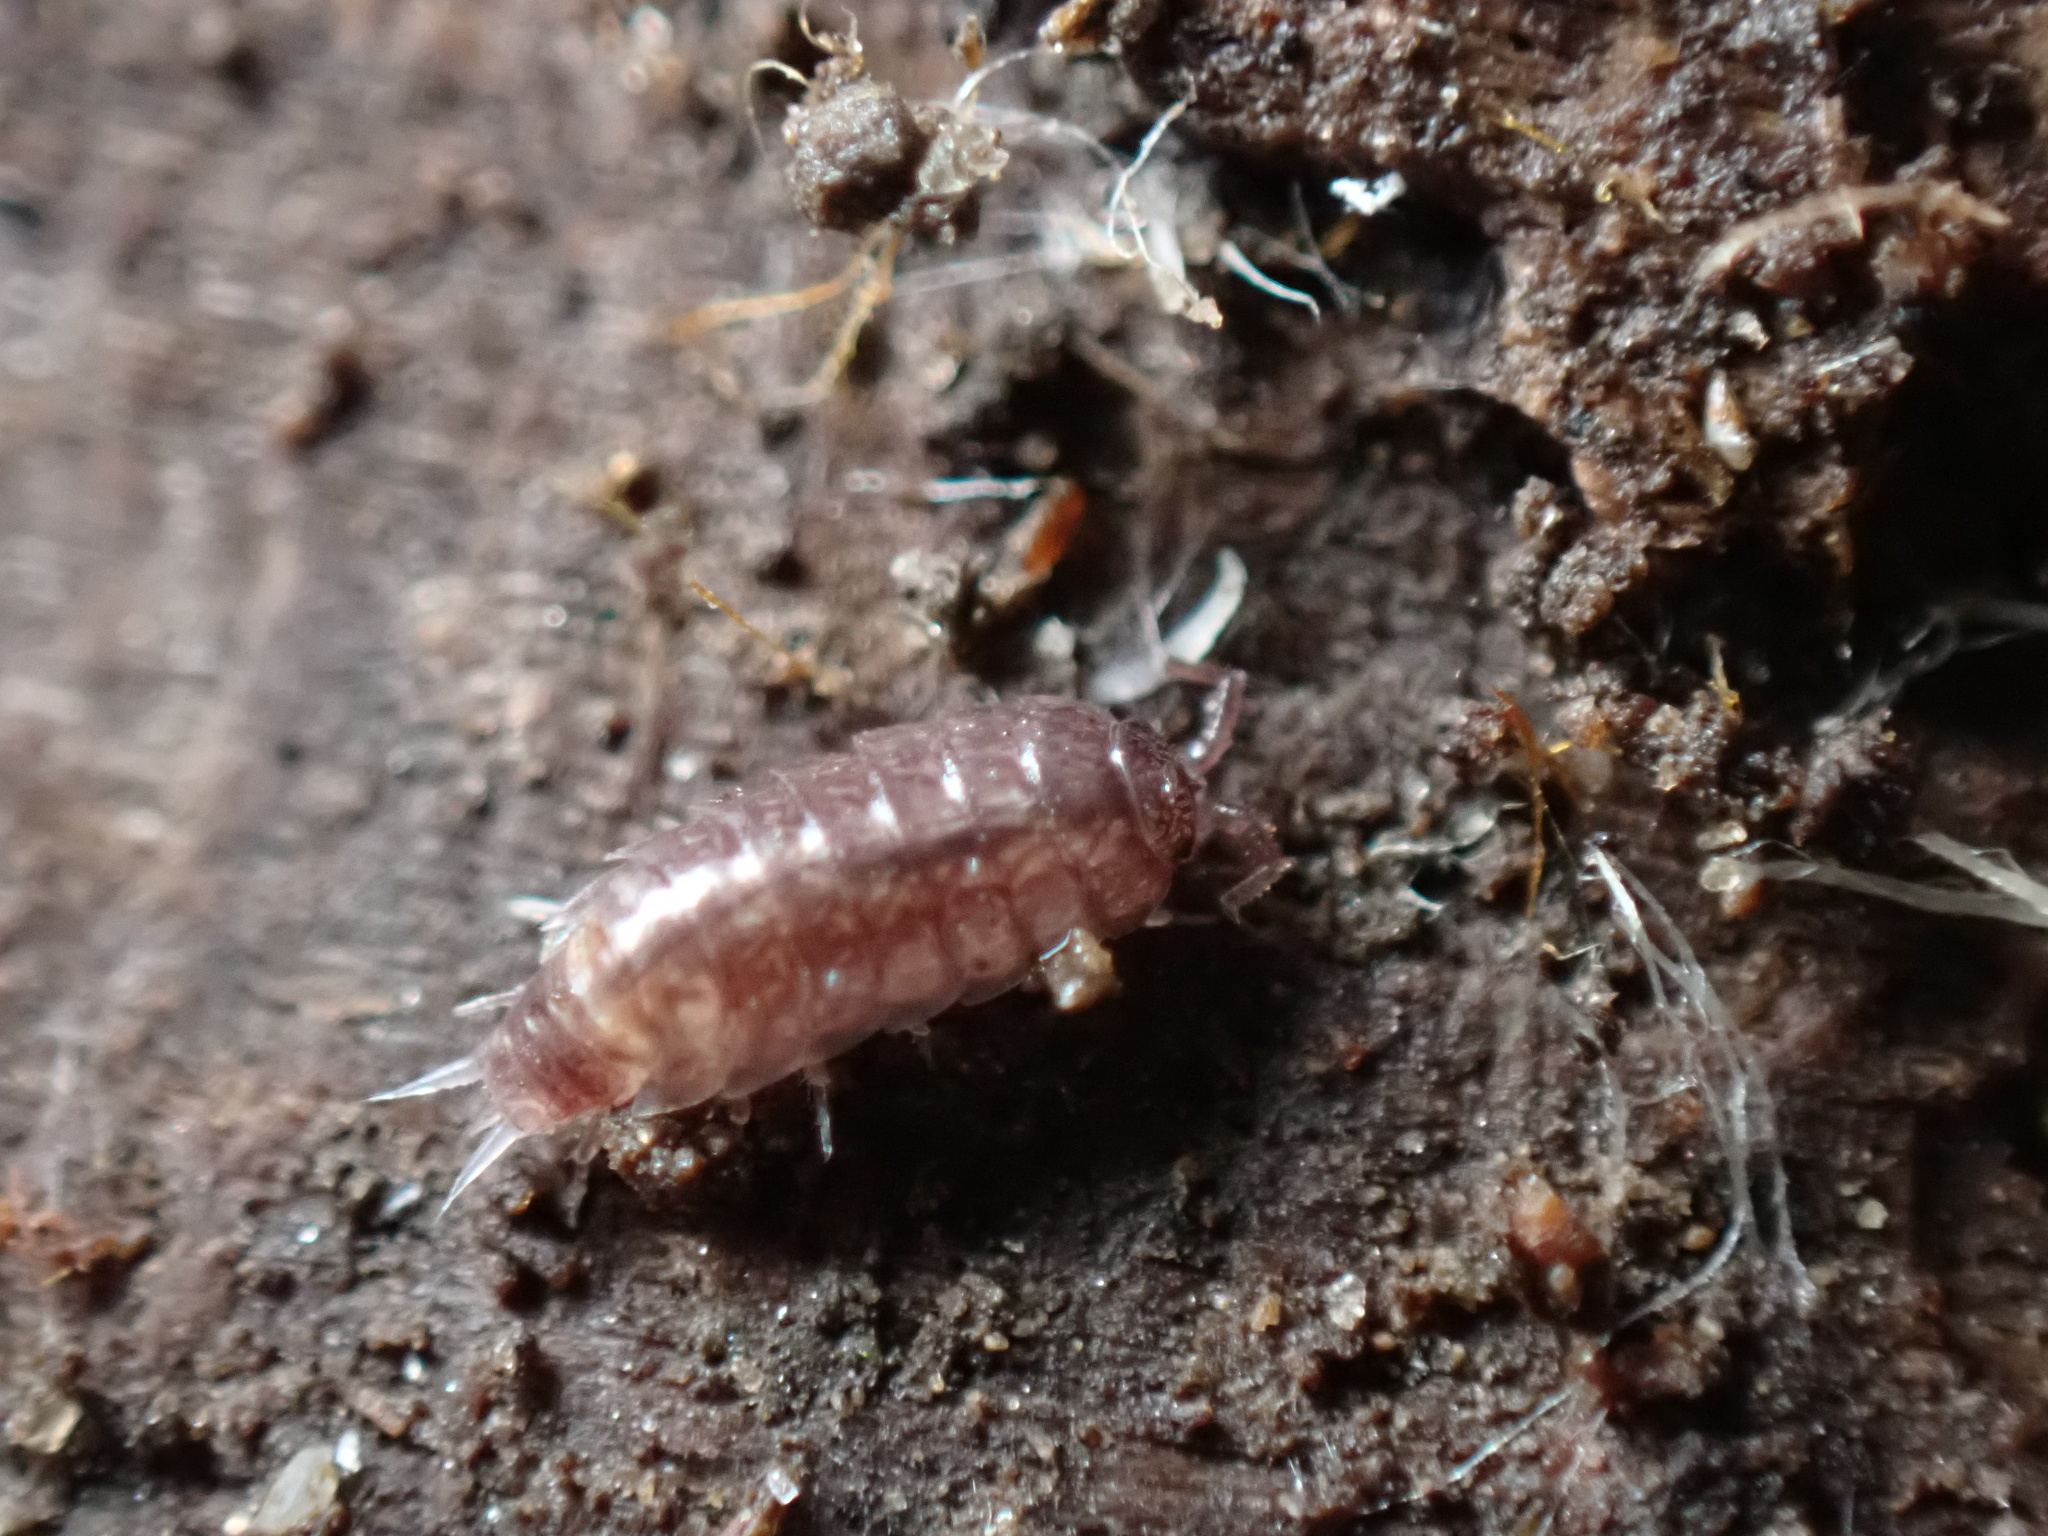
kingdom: Animalia
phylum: Arthropoda
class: Malacostraca
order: Isopoda
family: Trichoniscidae
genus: Hyloniscus
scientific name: Hyloniscus riparius
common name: Isopod
